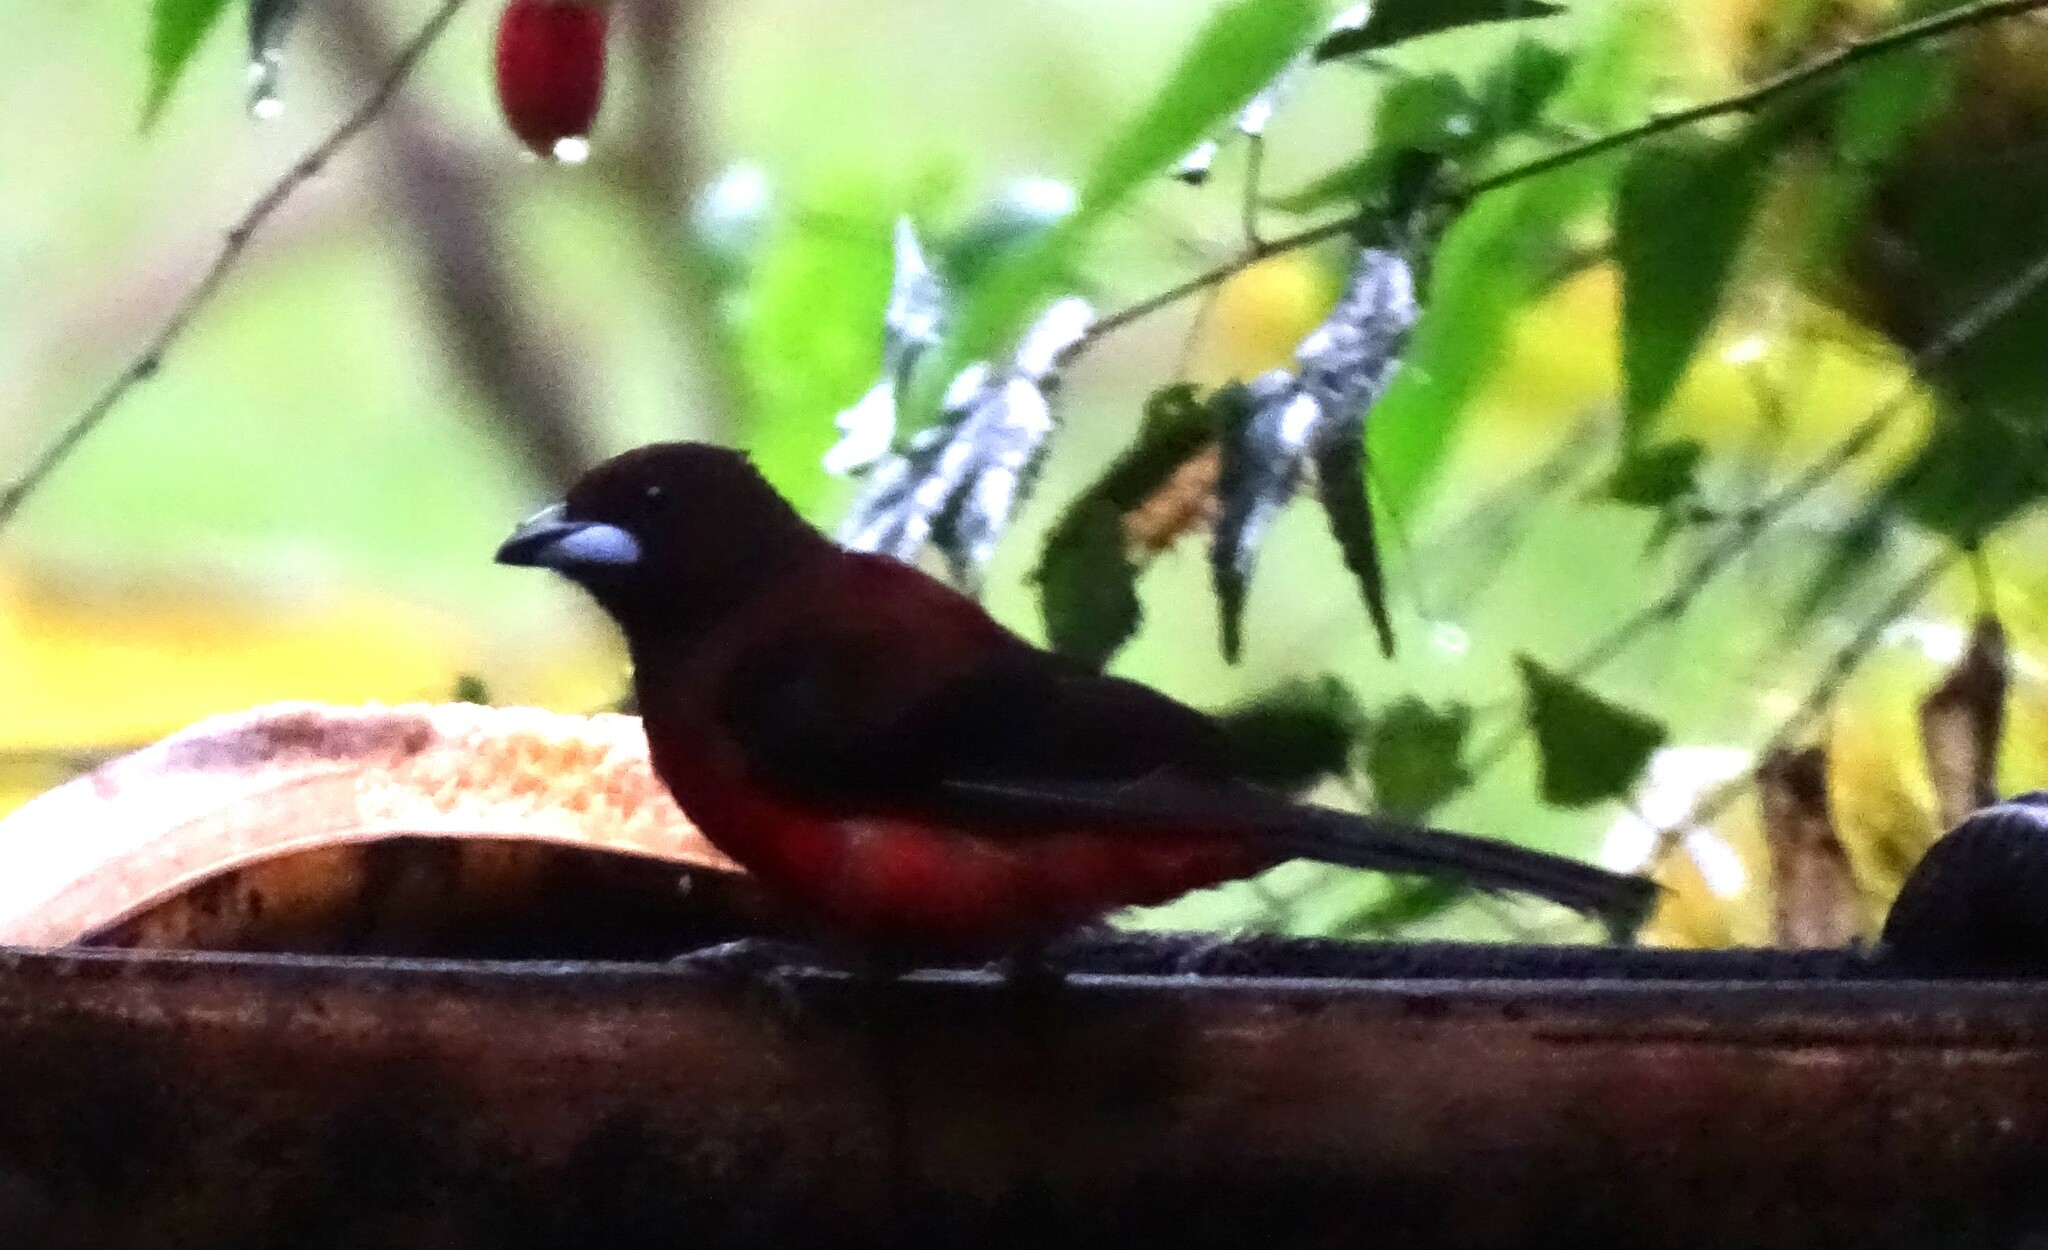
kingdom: Animalia
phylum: Chordata
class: Aves
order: Passeriformes
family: Thraupidae
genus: Ramphocelus
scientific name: Ramphocelus dimidiatus
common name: Crimson-backed tanager
